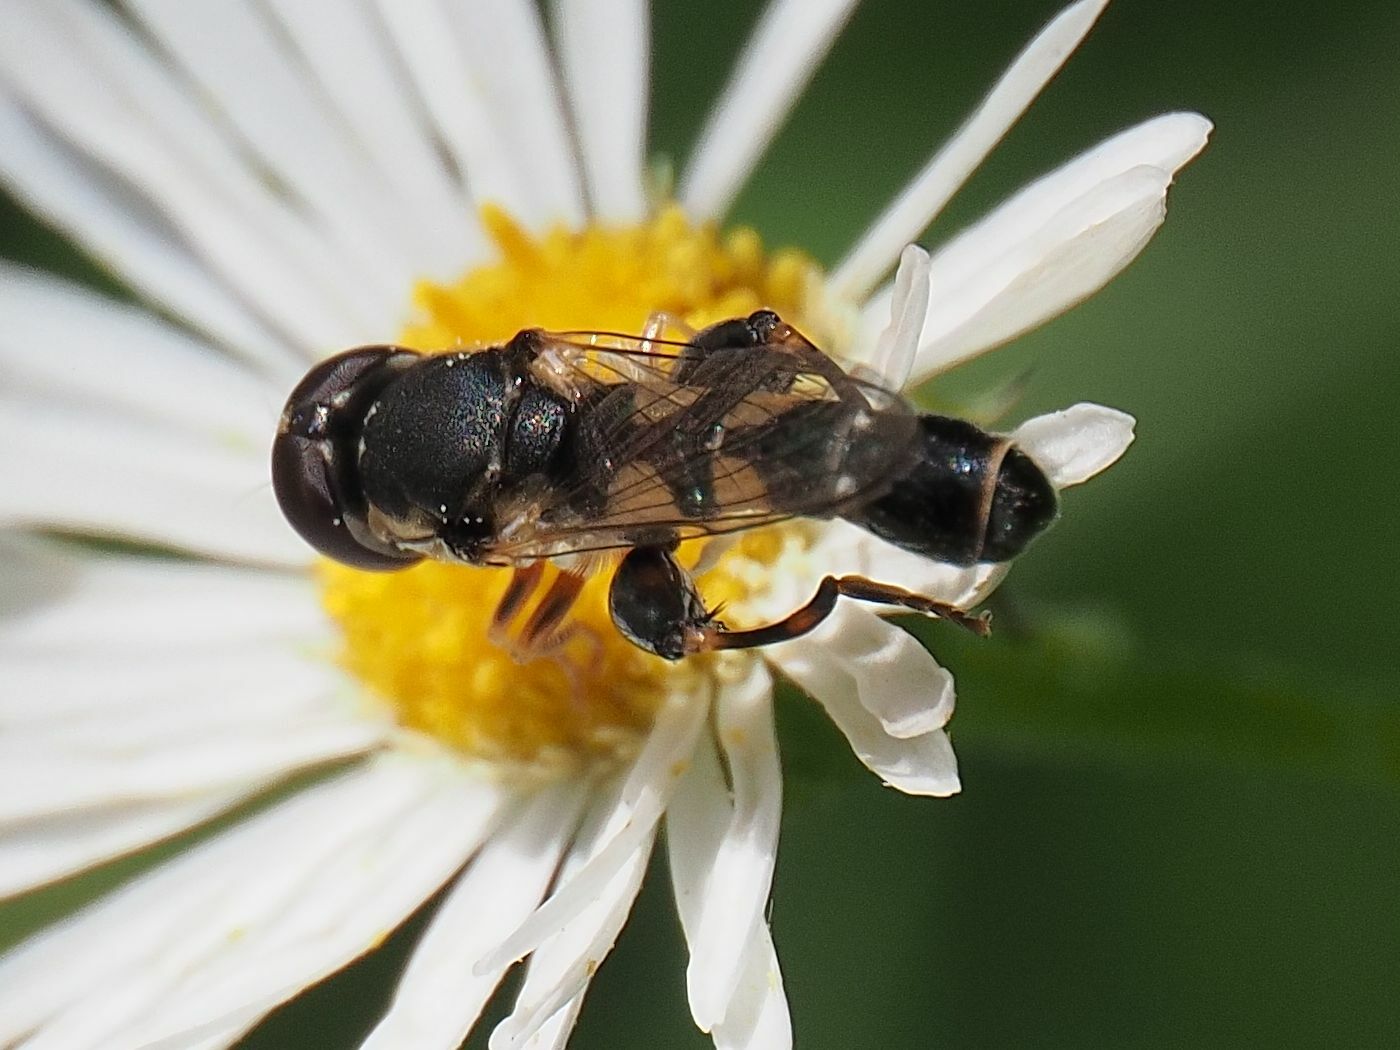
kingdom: Animalia
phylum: Arthropoda
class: Insecta
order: Diptera
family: Syrphidae
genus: Syritta
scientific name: Syritta pipiens
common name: Hover fly
